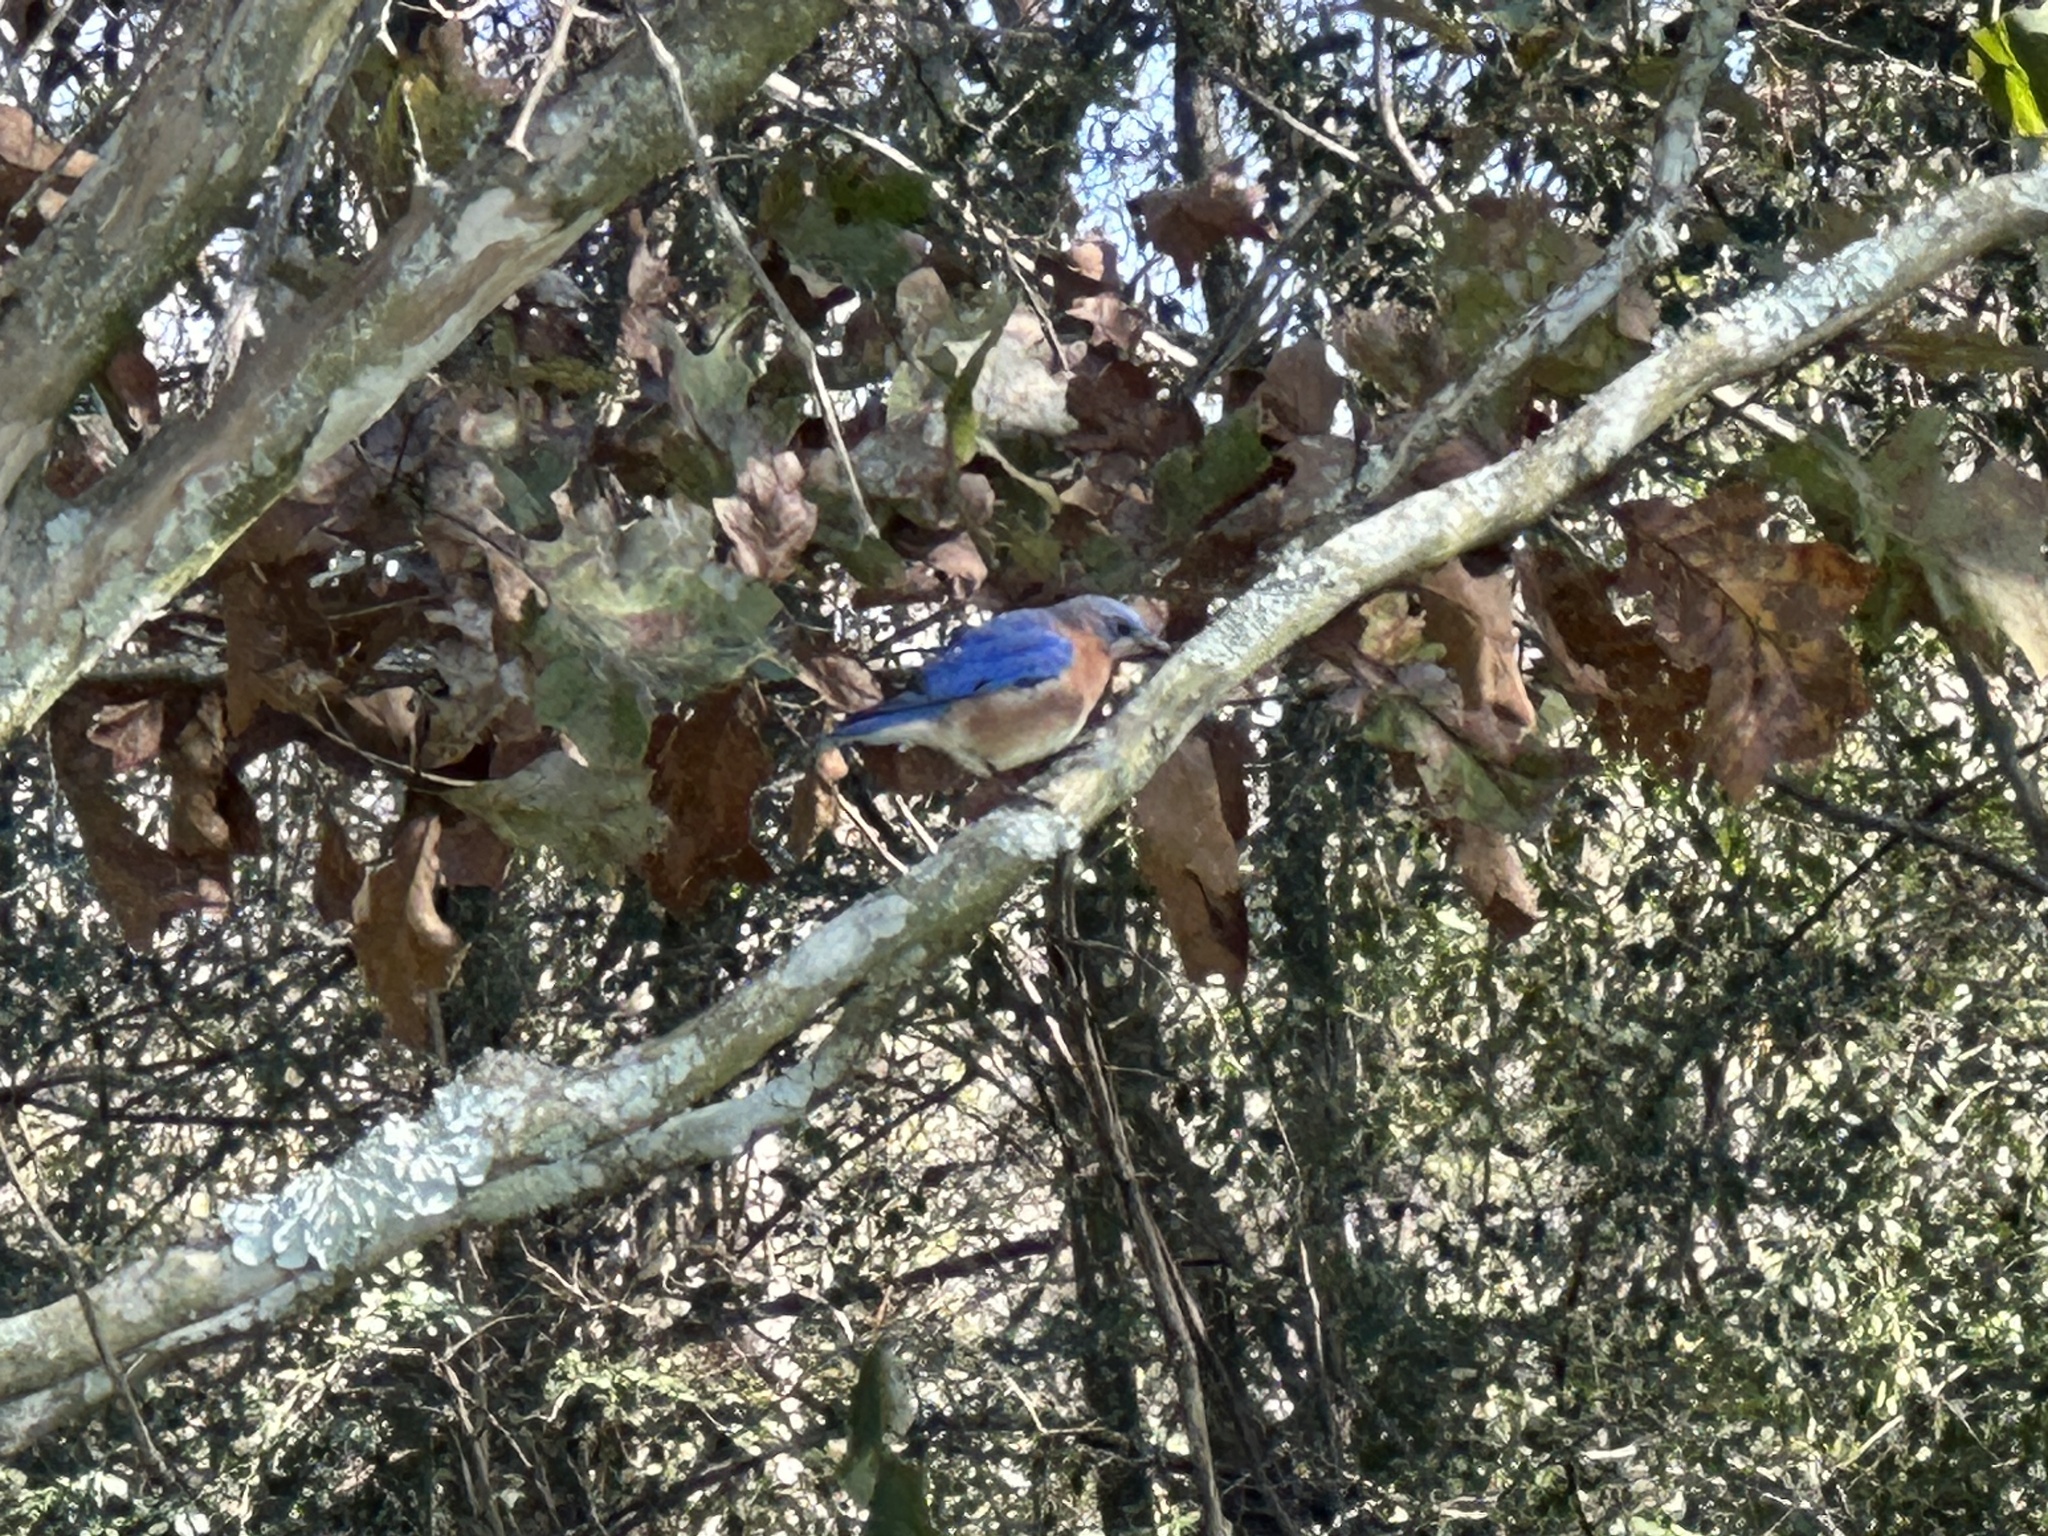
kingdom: Animalia
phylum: Chordata
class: Aves
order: Passeriformes
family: Turdidae
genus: Sialia
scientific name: Sialia sialis
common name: Eastern bluebird
